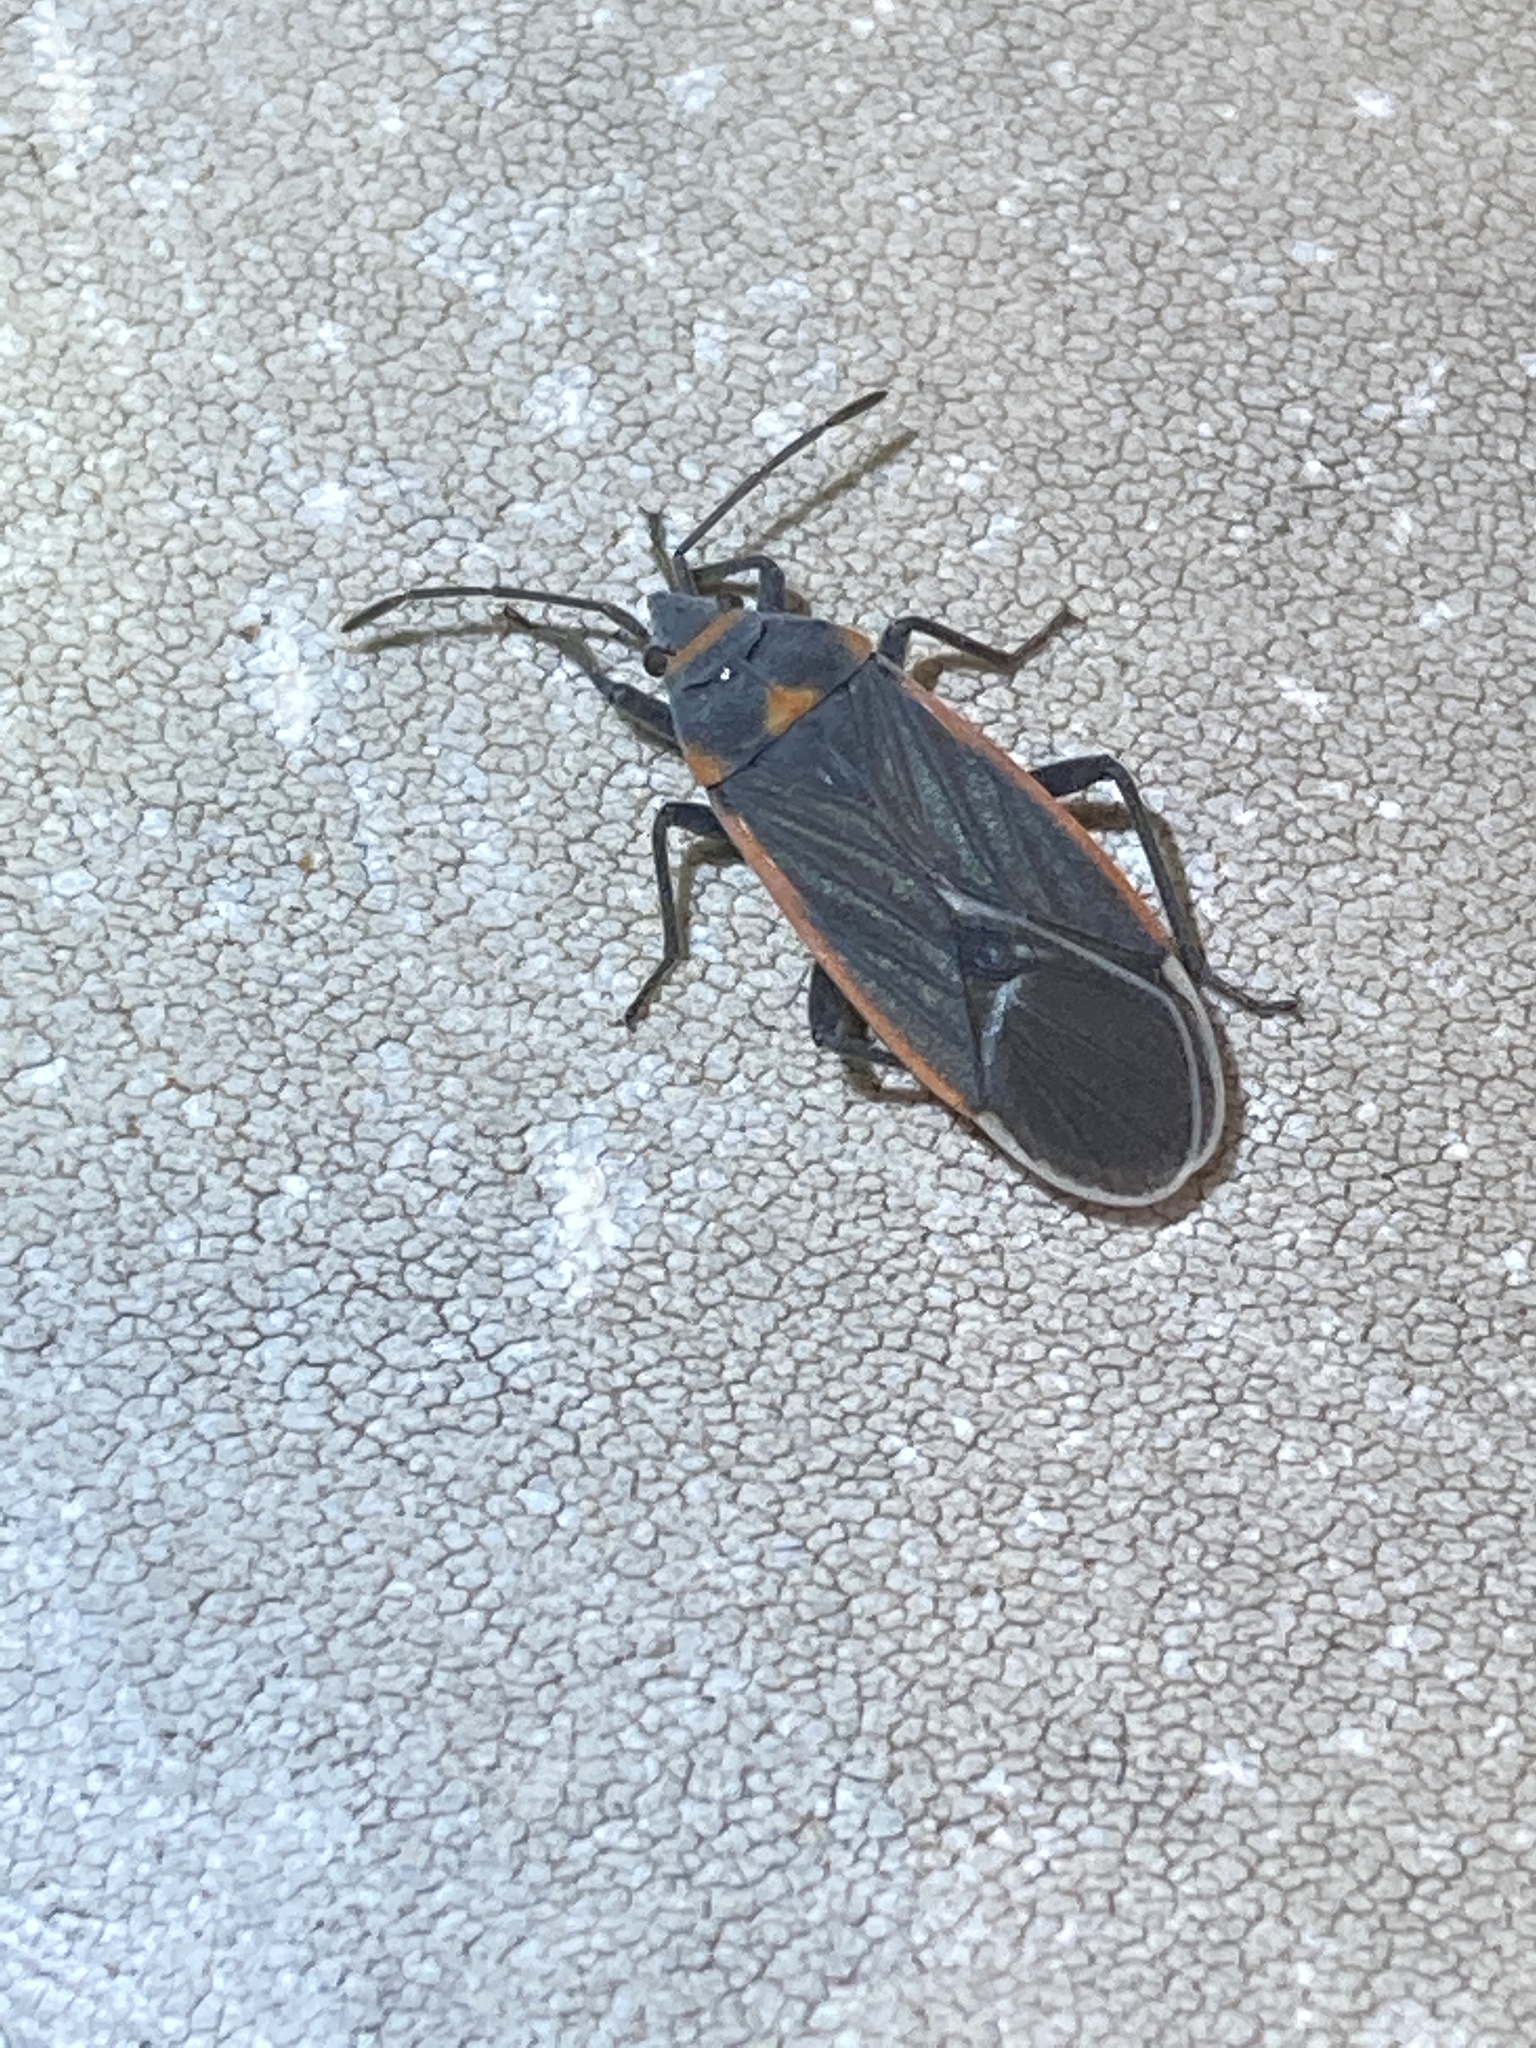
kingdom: Animalia
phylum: Arthropoda
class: Insecta
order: Hemiptera
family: Lygaeidae
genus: Melacoryphus
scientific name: Melacoryphus lateralis
